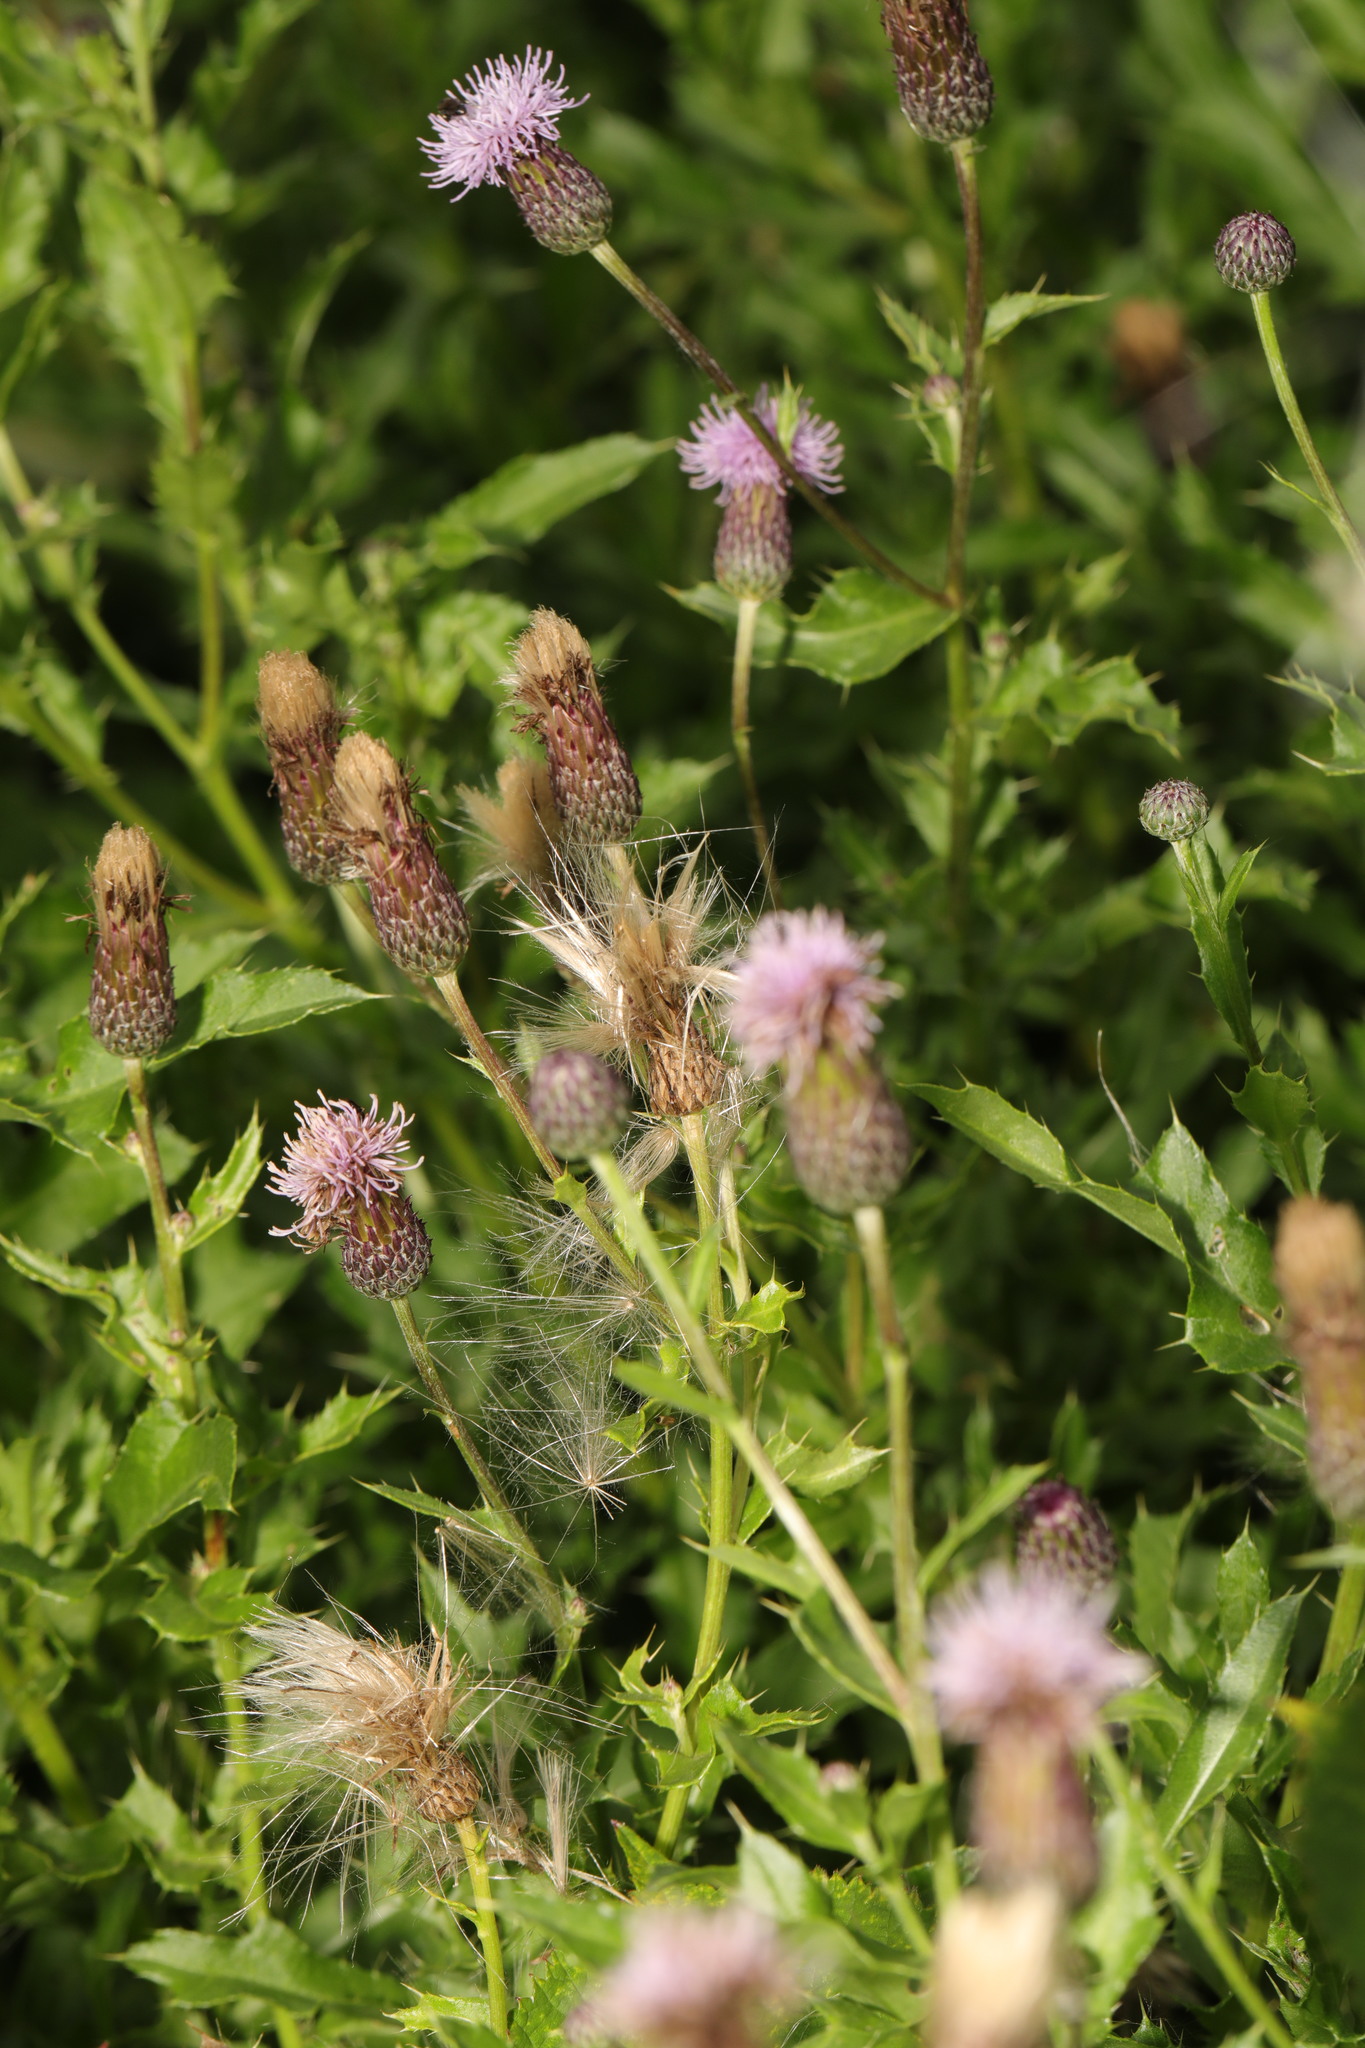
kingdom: Plantae
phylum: Tracheophyta
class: Magnoliopsida
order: Asterales
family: Asteraceae
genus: Cirsium
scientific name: Cirsium arvense
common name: Creeping thistle
